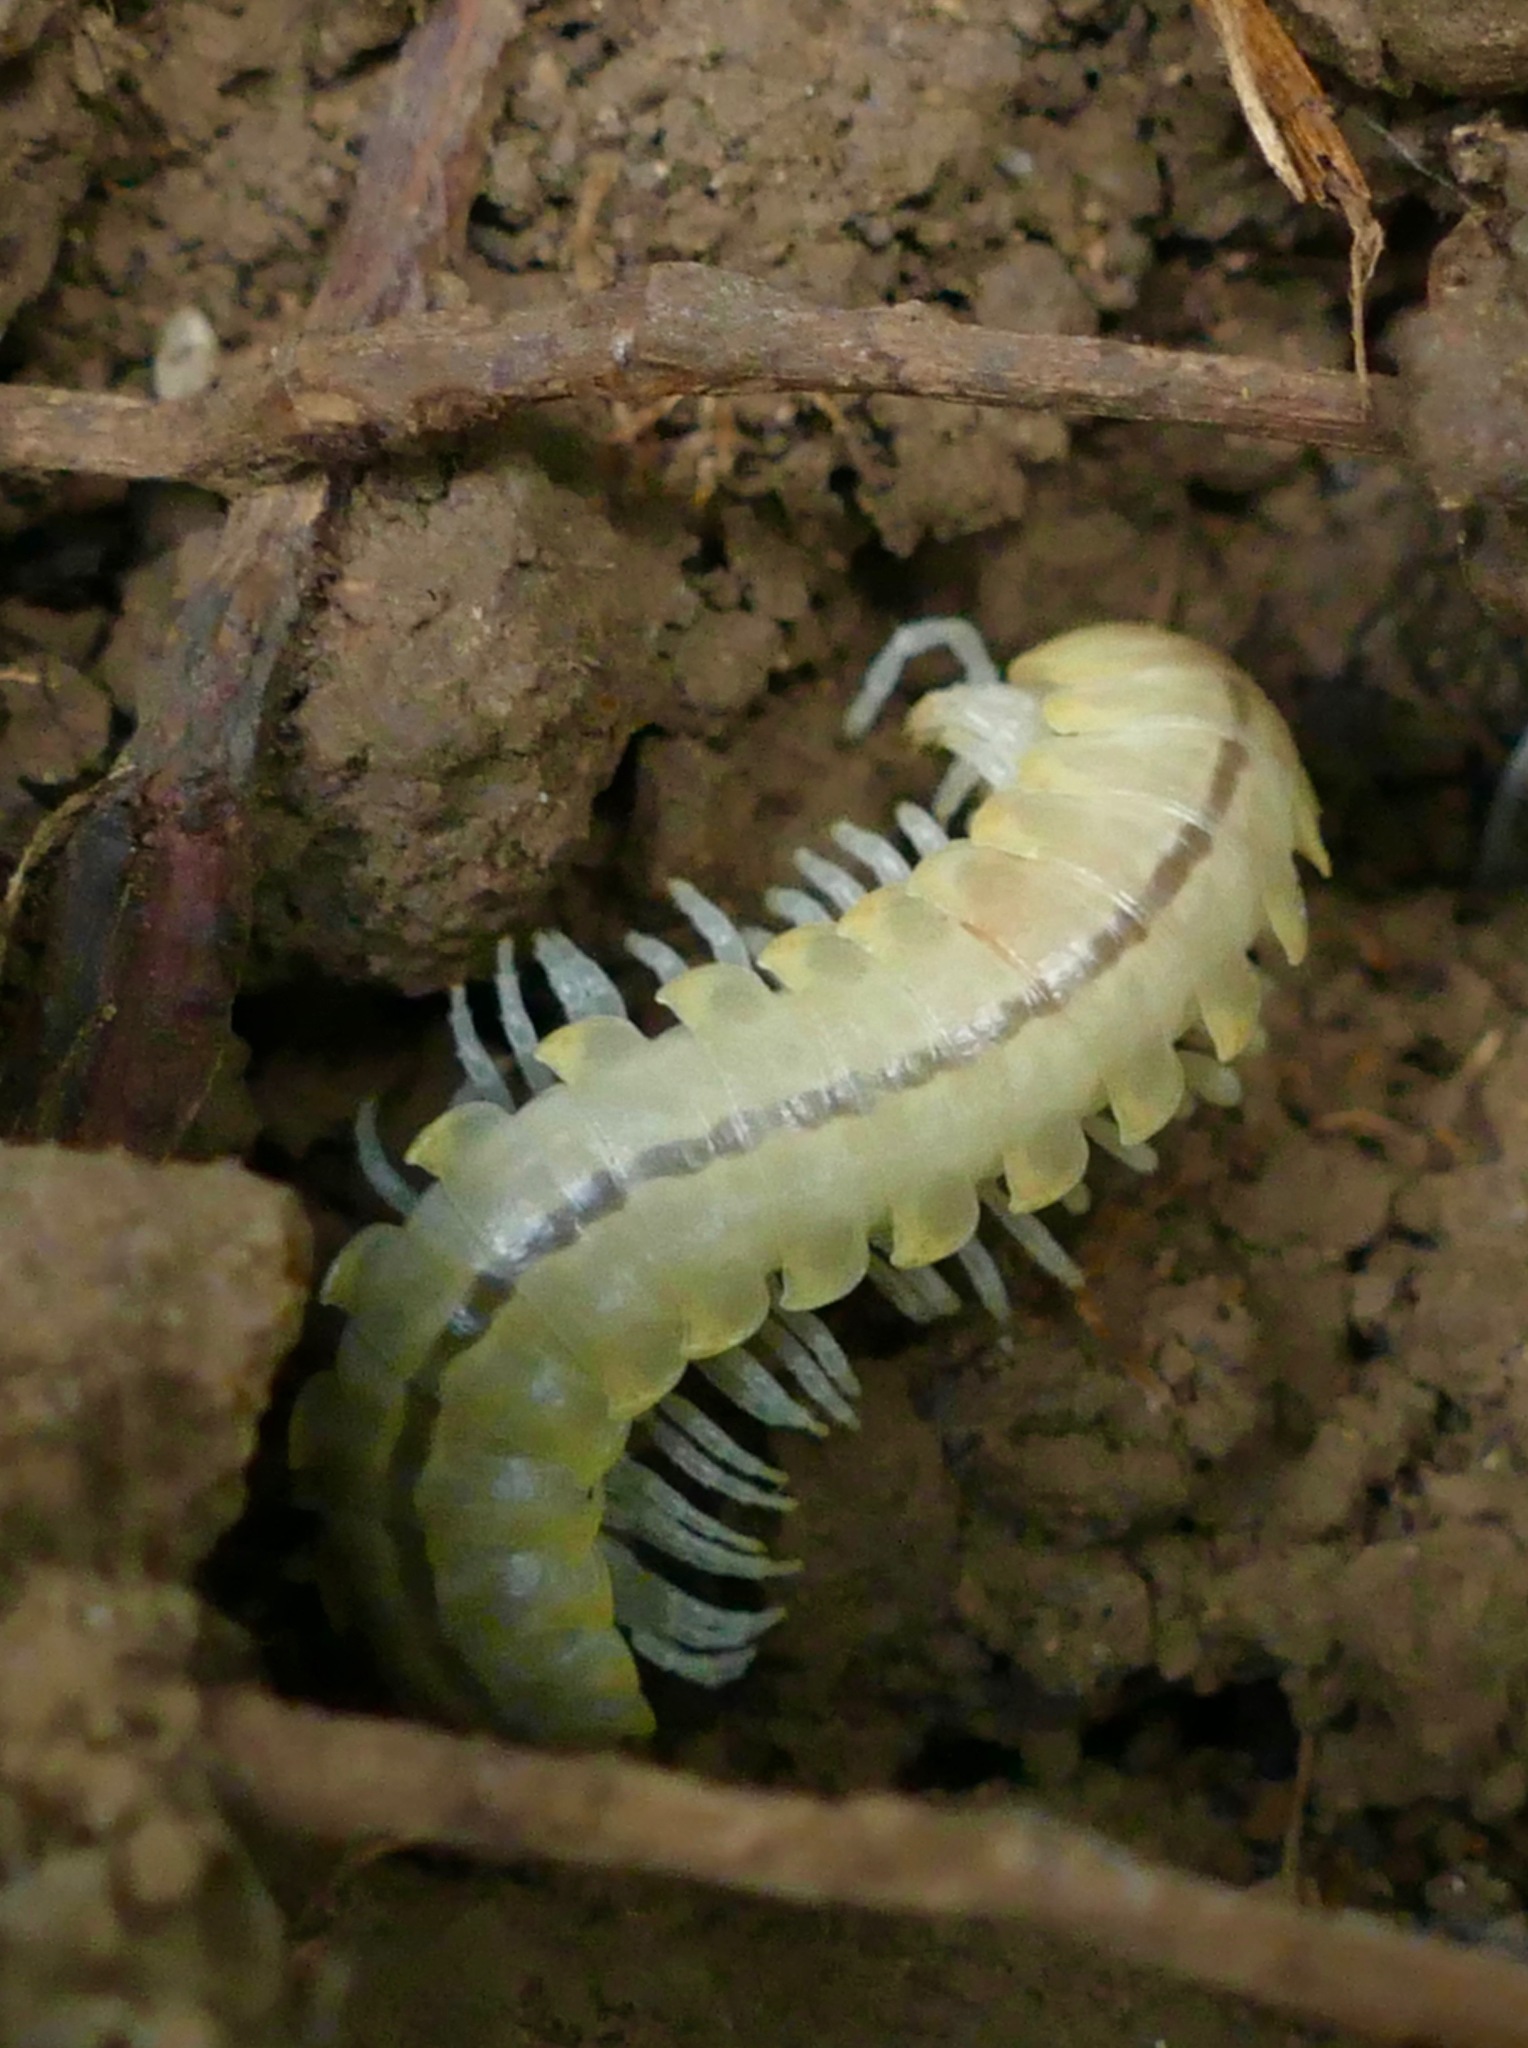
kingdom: Animalia
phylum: Arthropoda
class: Diplopoda
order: Polydesmida
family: Xystodesmidae
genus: Xystocheir
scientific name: Xystocheir dissecta
